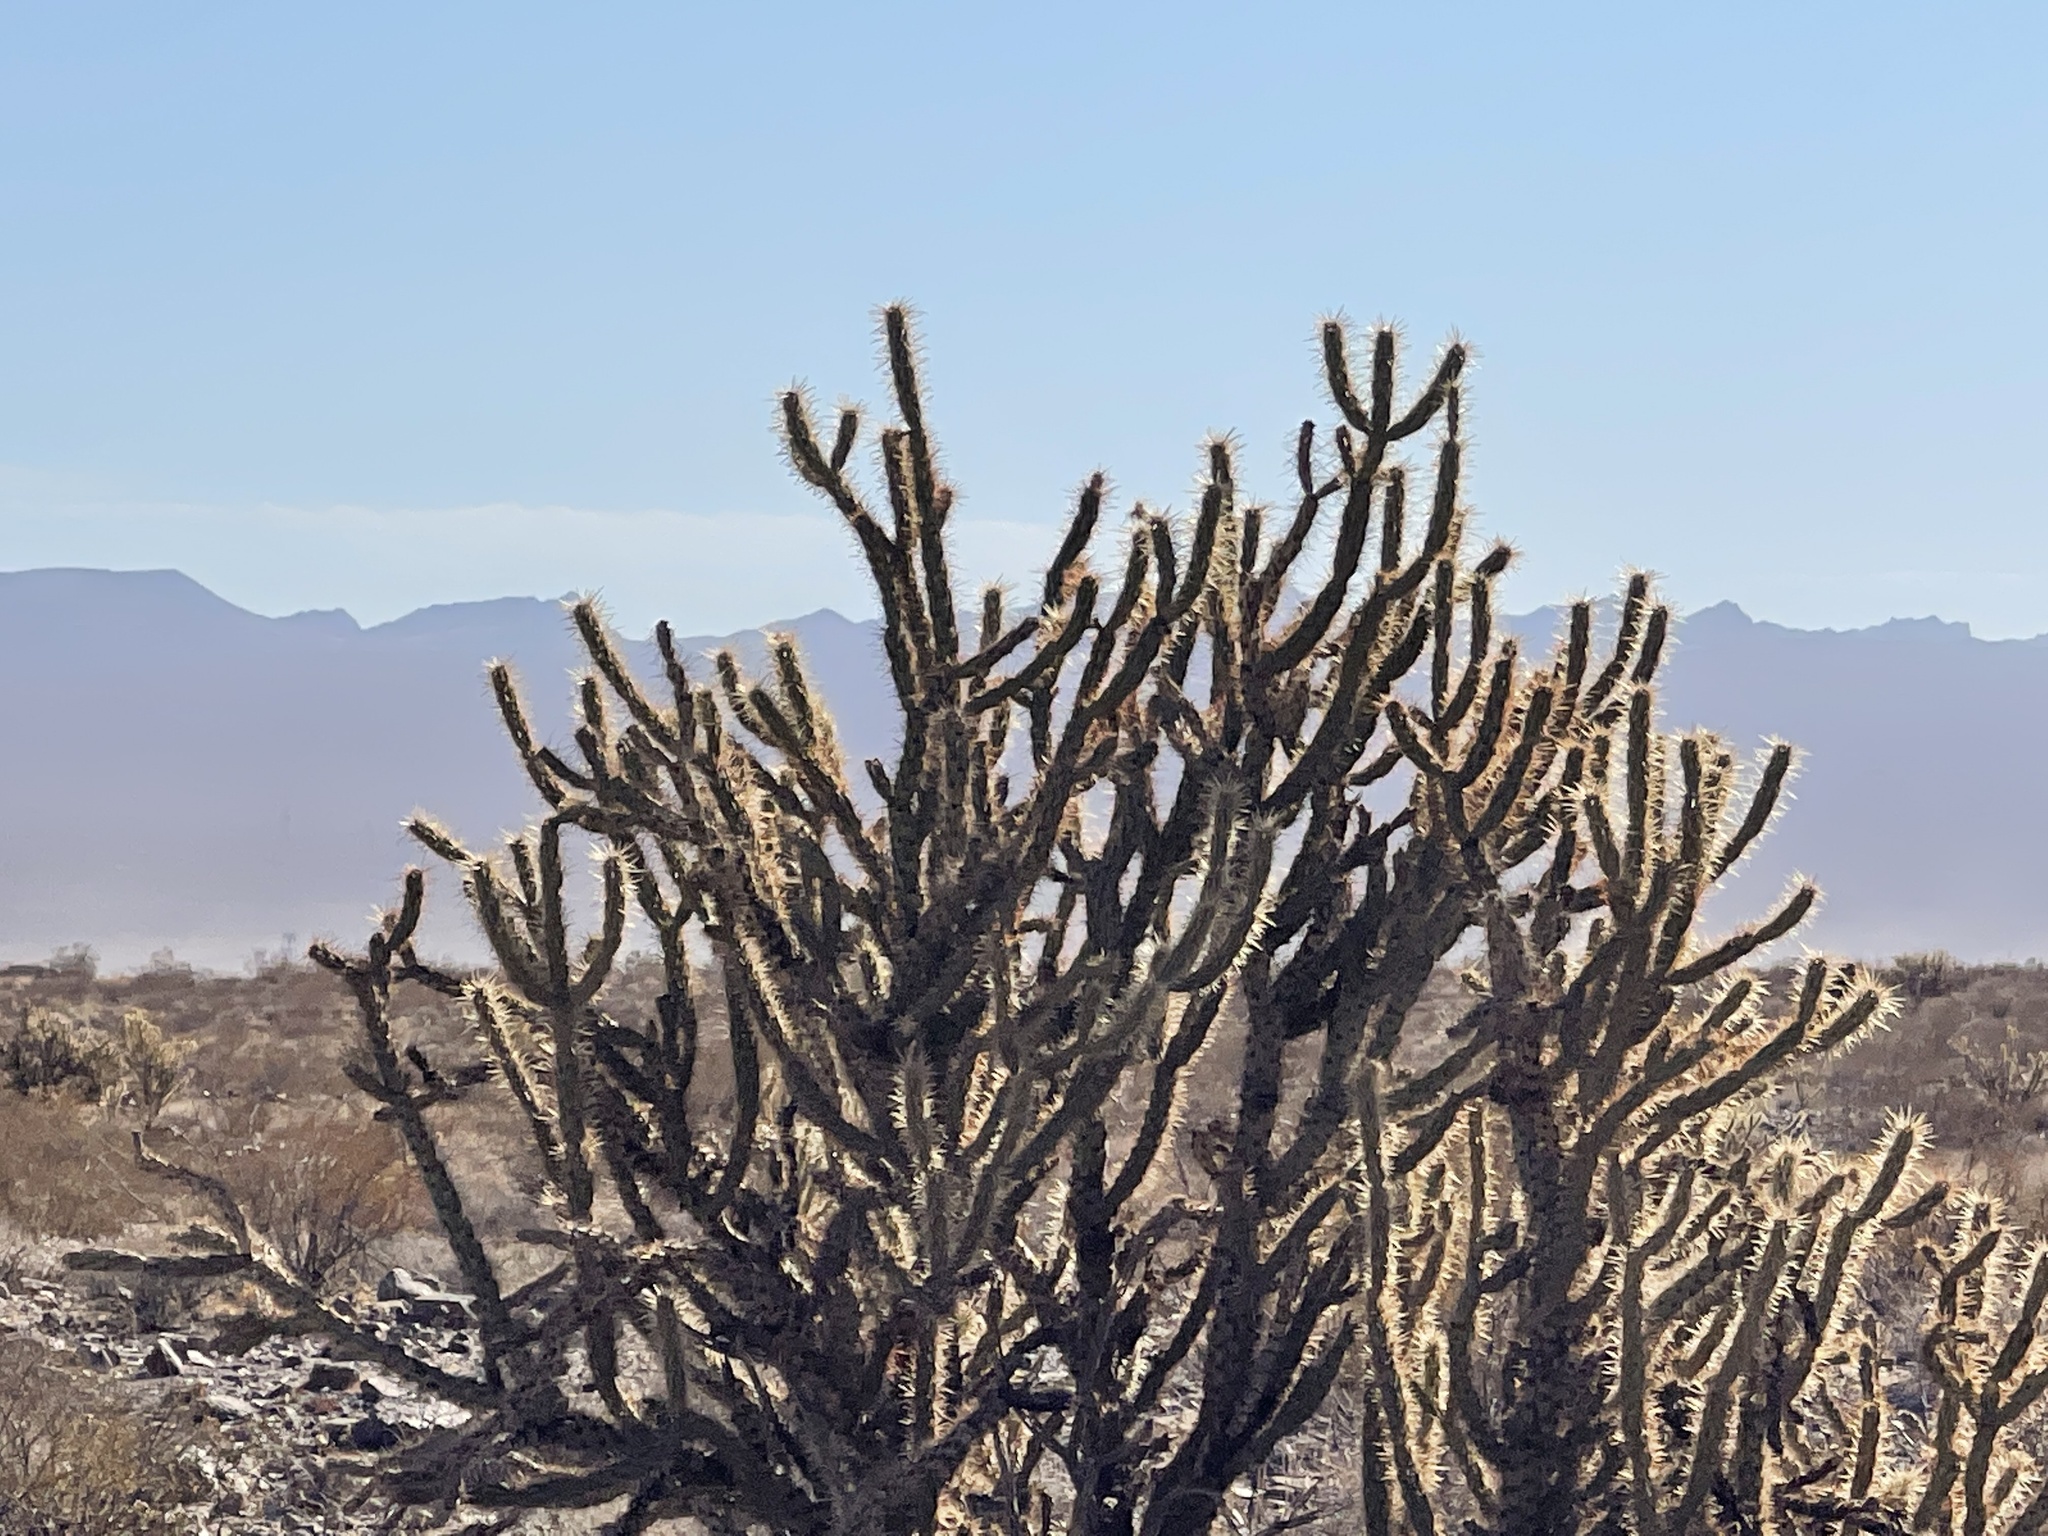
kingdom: Plantae
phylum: Tracheophyta
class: Magnoliopsida
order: Caryophyllales
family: Cactaceae
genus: Cylindropuntia
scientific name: Cylindropuntia acanthocarpa
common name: Buckhorn cholla
